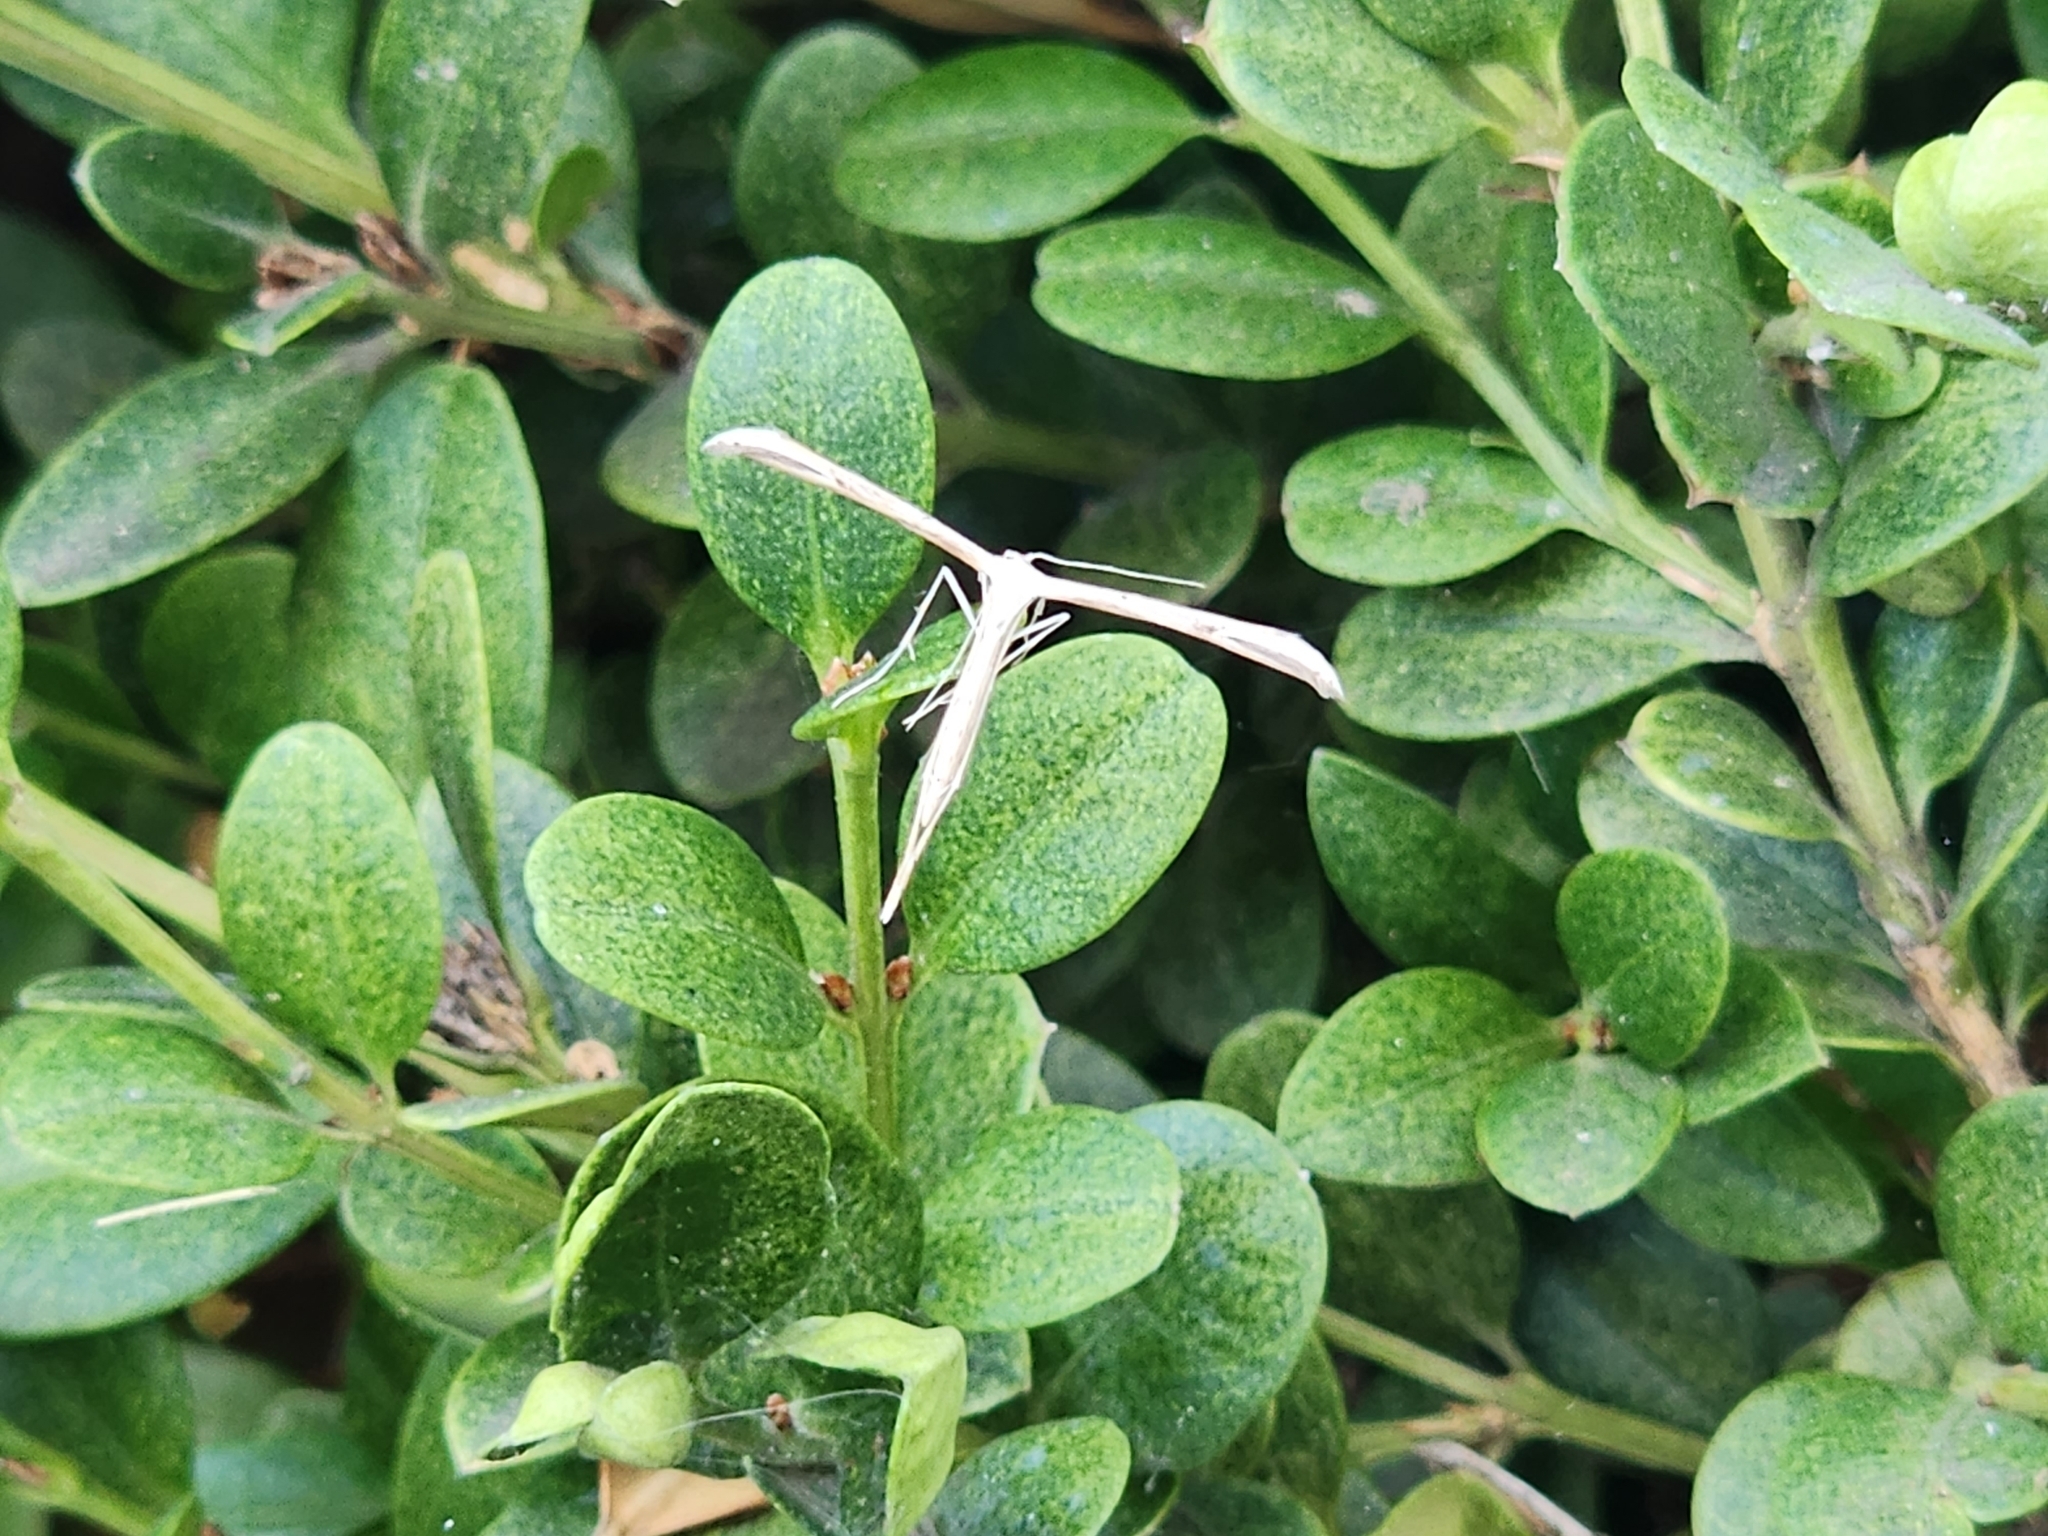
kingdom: Animalia
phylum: Arthropoda
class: Insecta
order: Lepidoptera
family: Pterophoridae
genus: Emmelina
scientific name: Emmelina monodactyla
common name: Common plume
